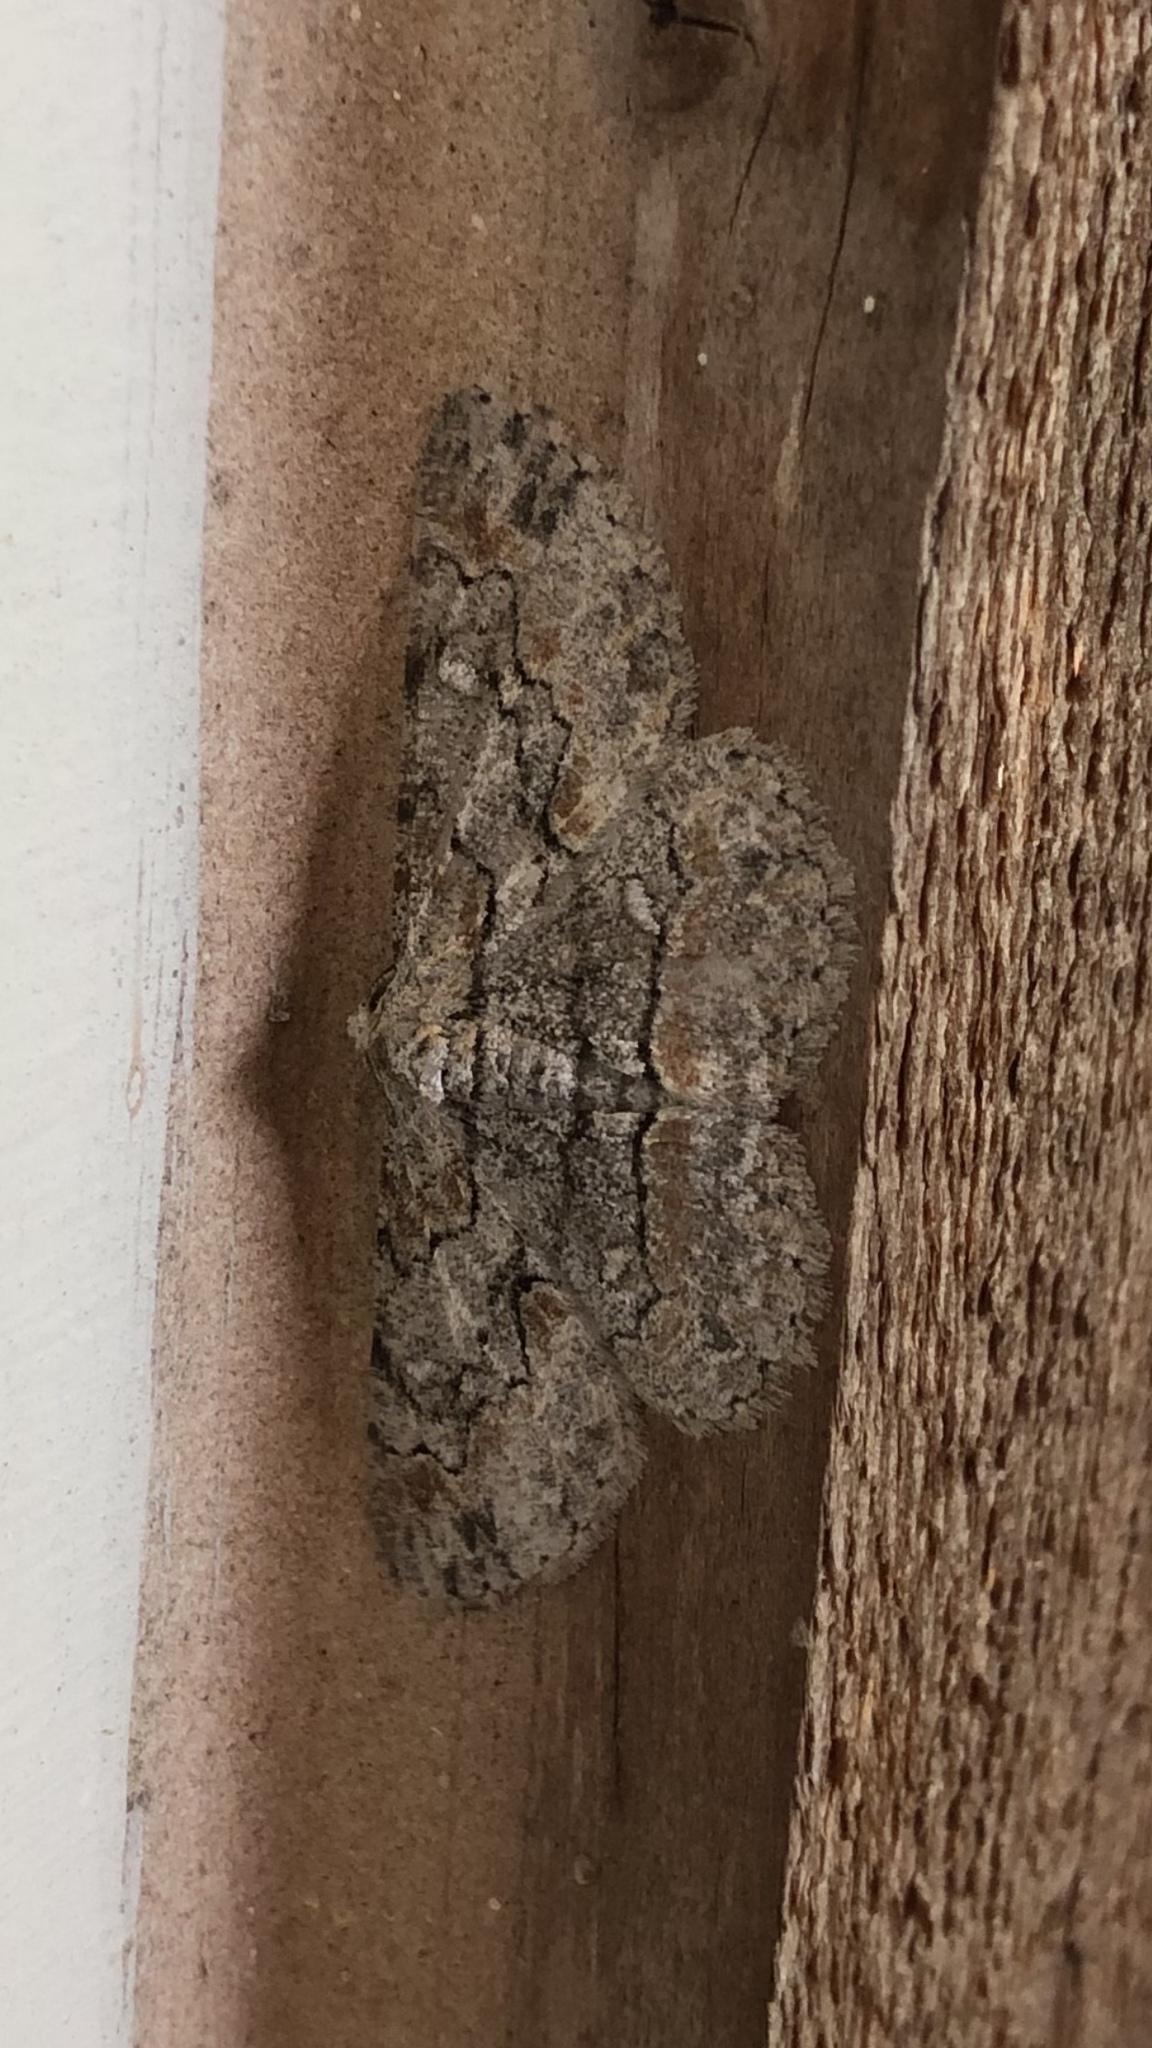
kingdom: Animalia
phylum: Arthropoda
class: Insecta
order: Lepidoptera
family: Geometridae
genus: Iridopsis
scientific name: Iridopsis defectaria
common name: Brown-shaded gray
